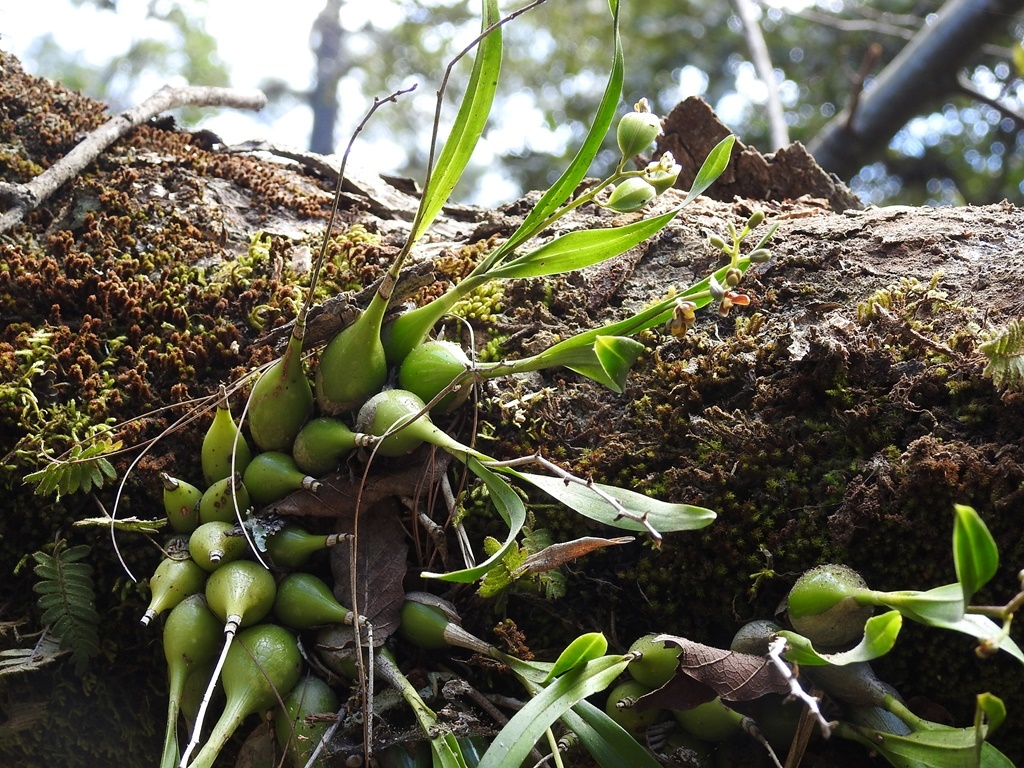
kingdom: Plantae
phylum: Tracheophyta
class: Liliopsida
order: Asparagales
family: Orchidaceae
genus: Prosthechea
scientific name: Prosthechea ochracea
